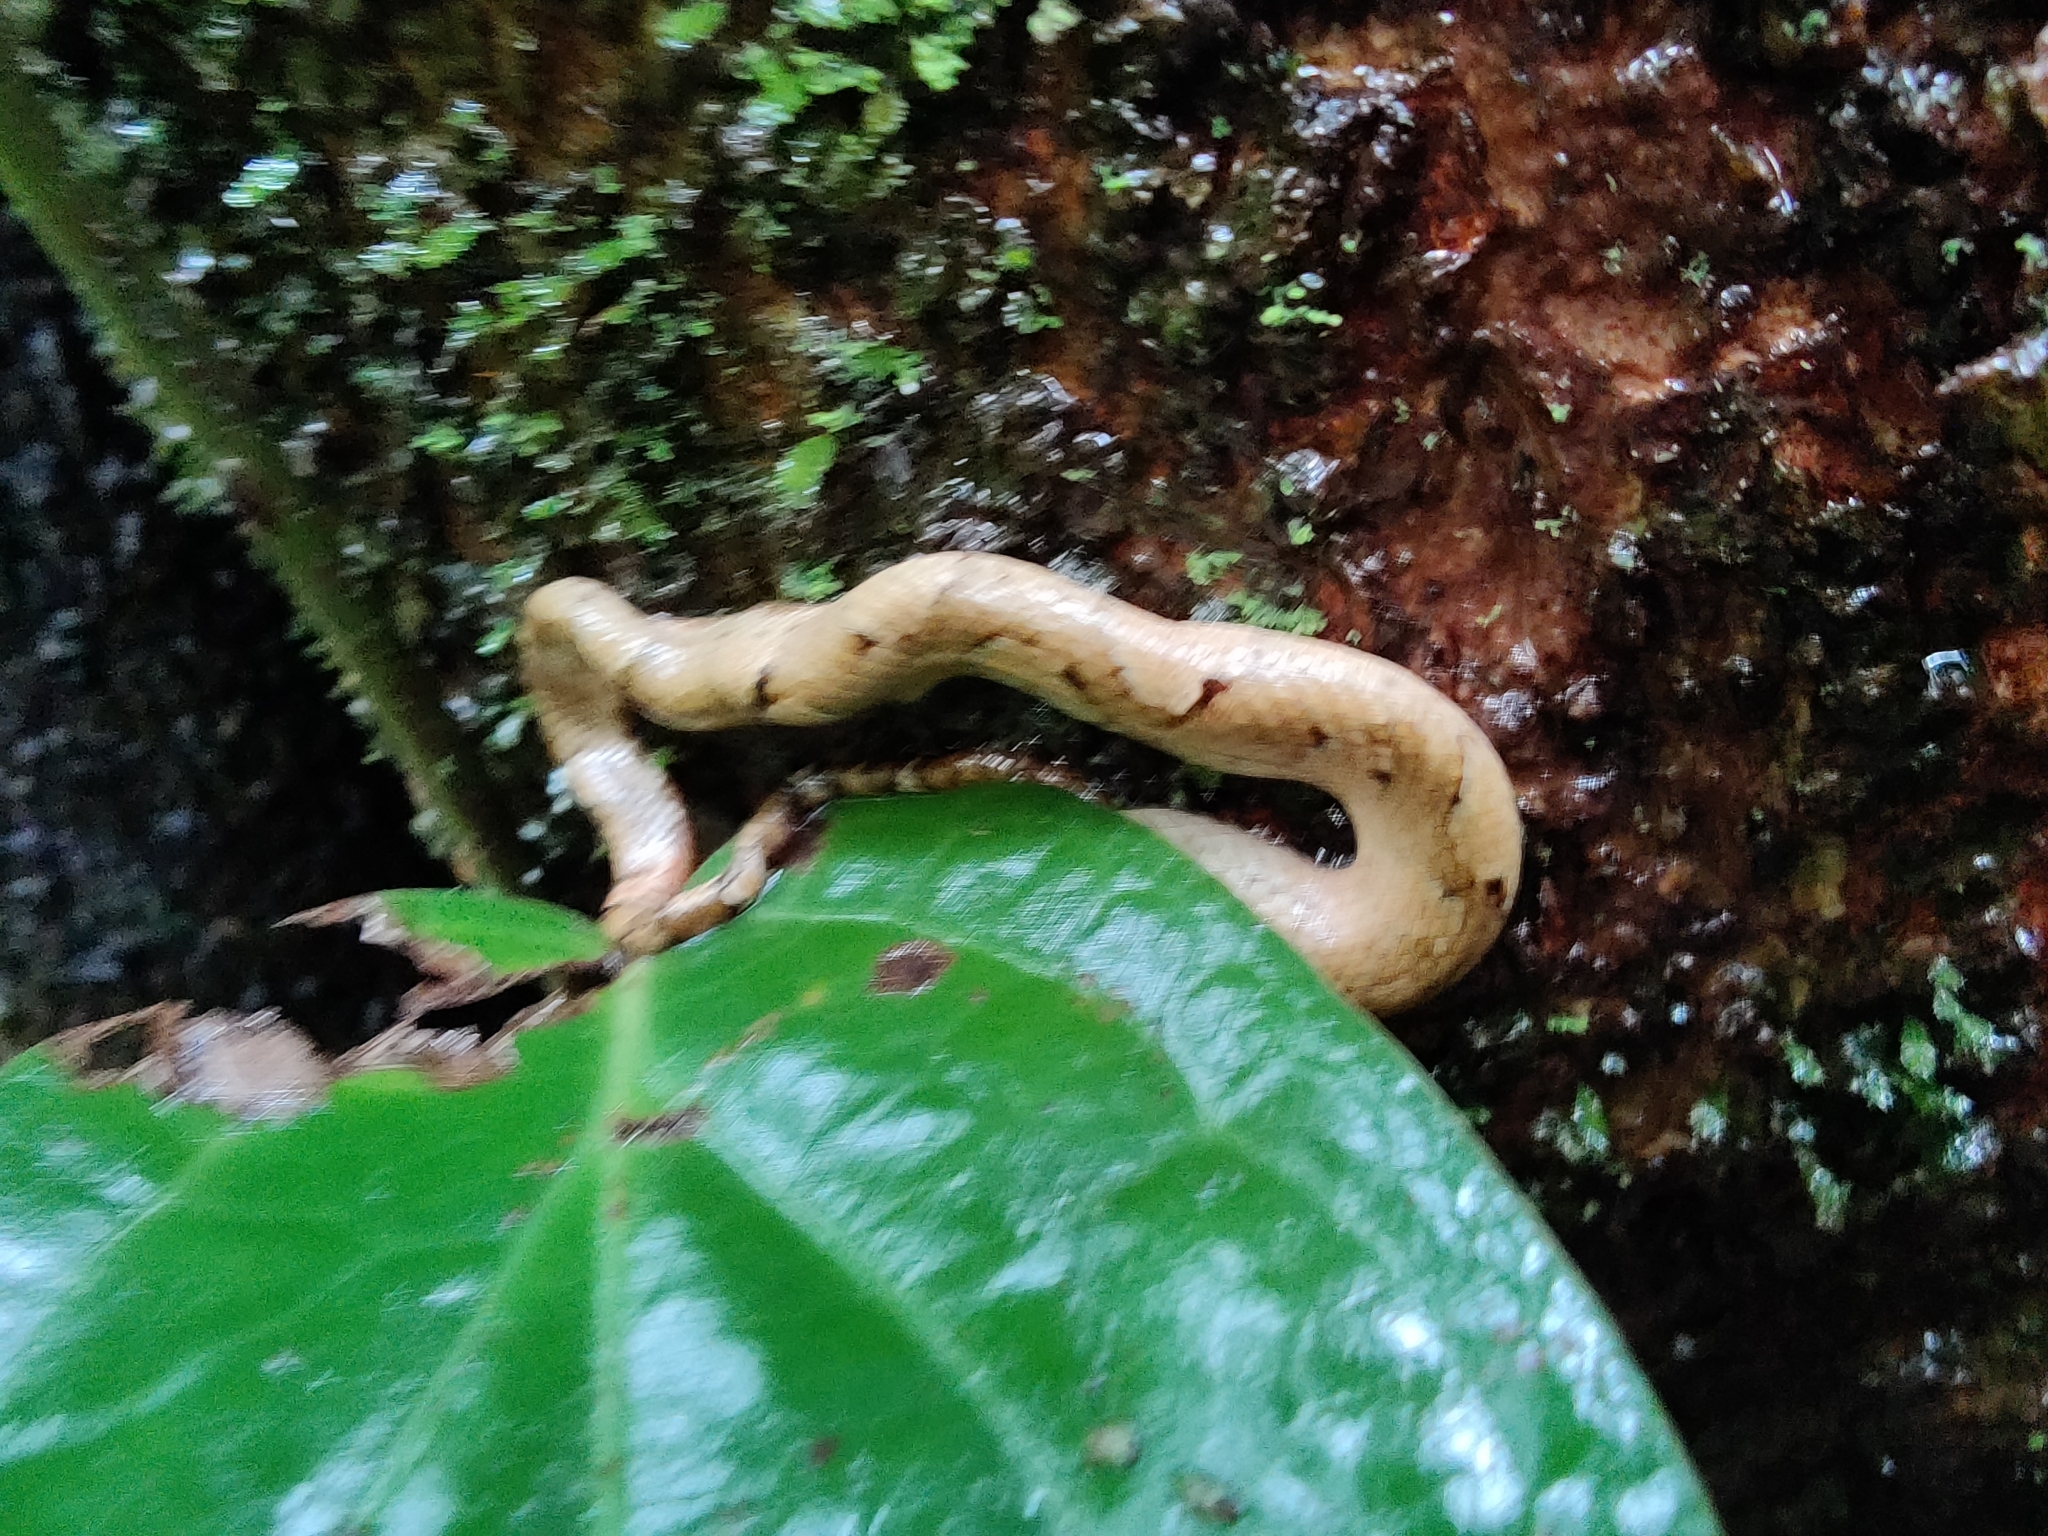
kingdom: Animalia
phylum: Chordata
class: Squamata
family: Viperidae
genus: Craspedocephalus
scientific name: Craspedocephalus malabaricus
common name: Malabarian pit viper
